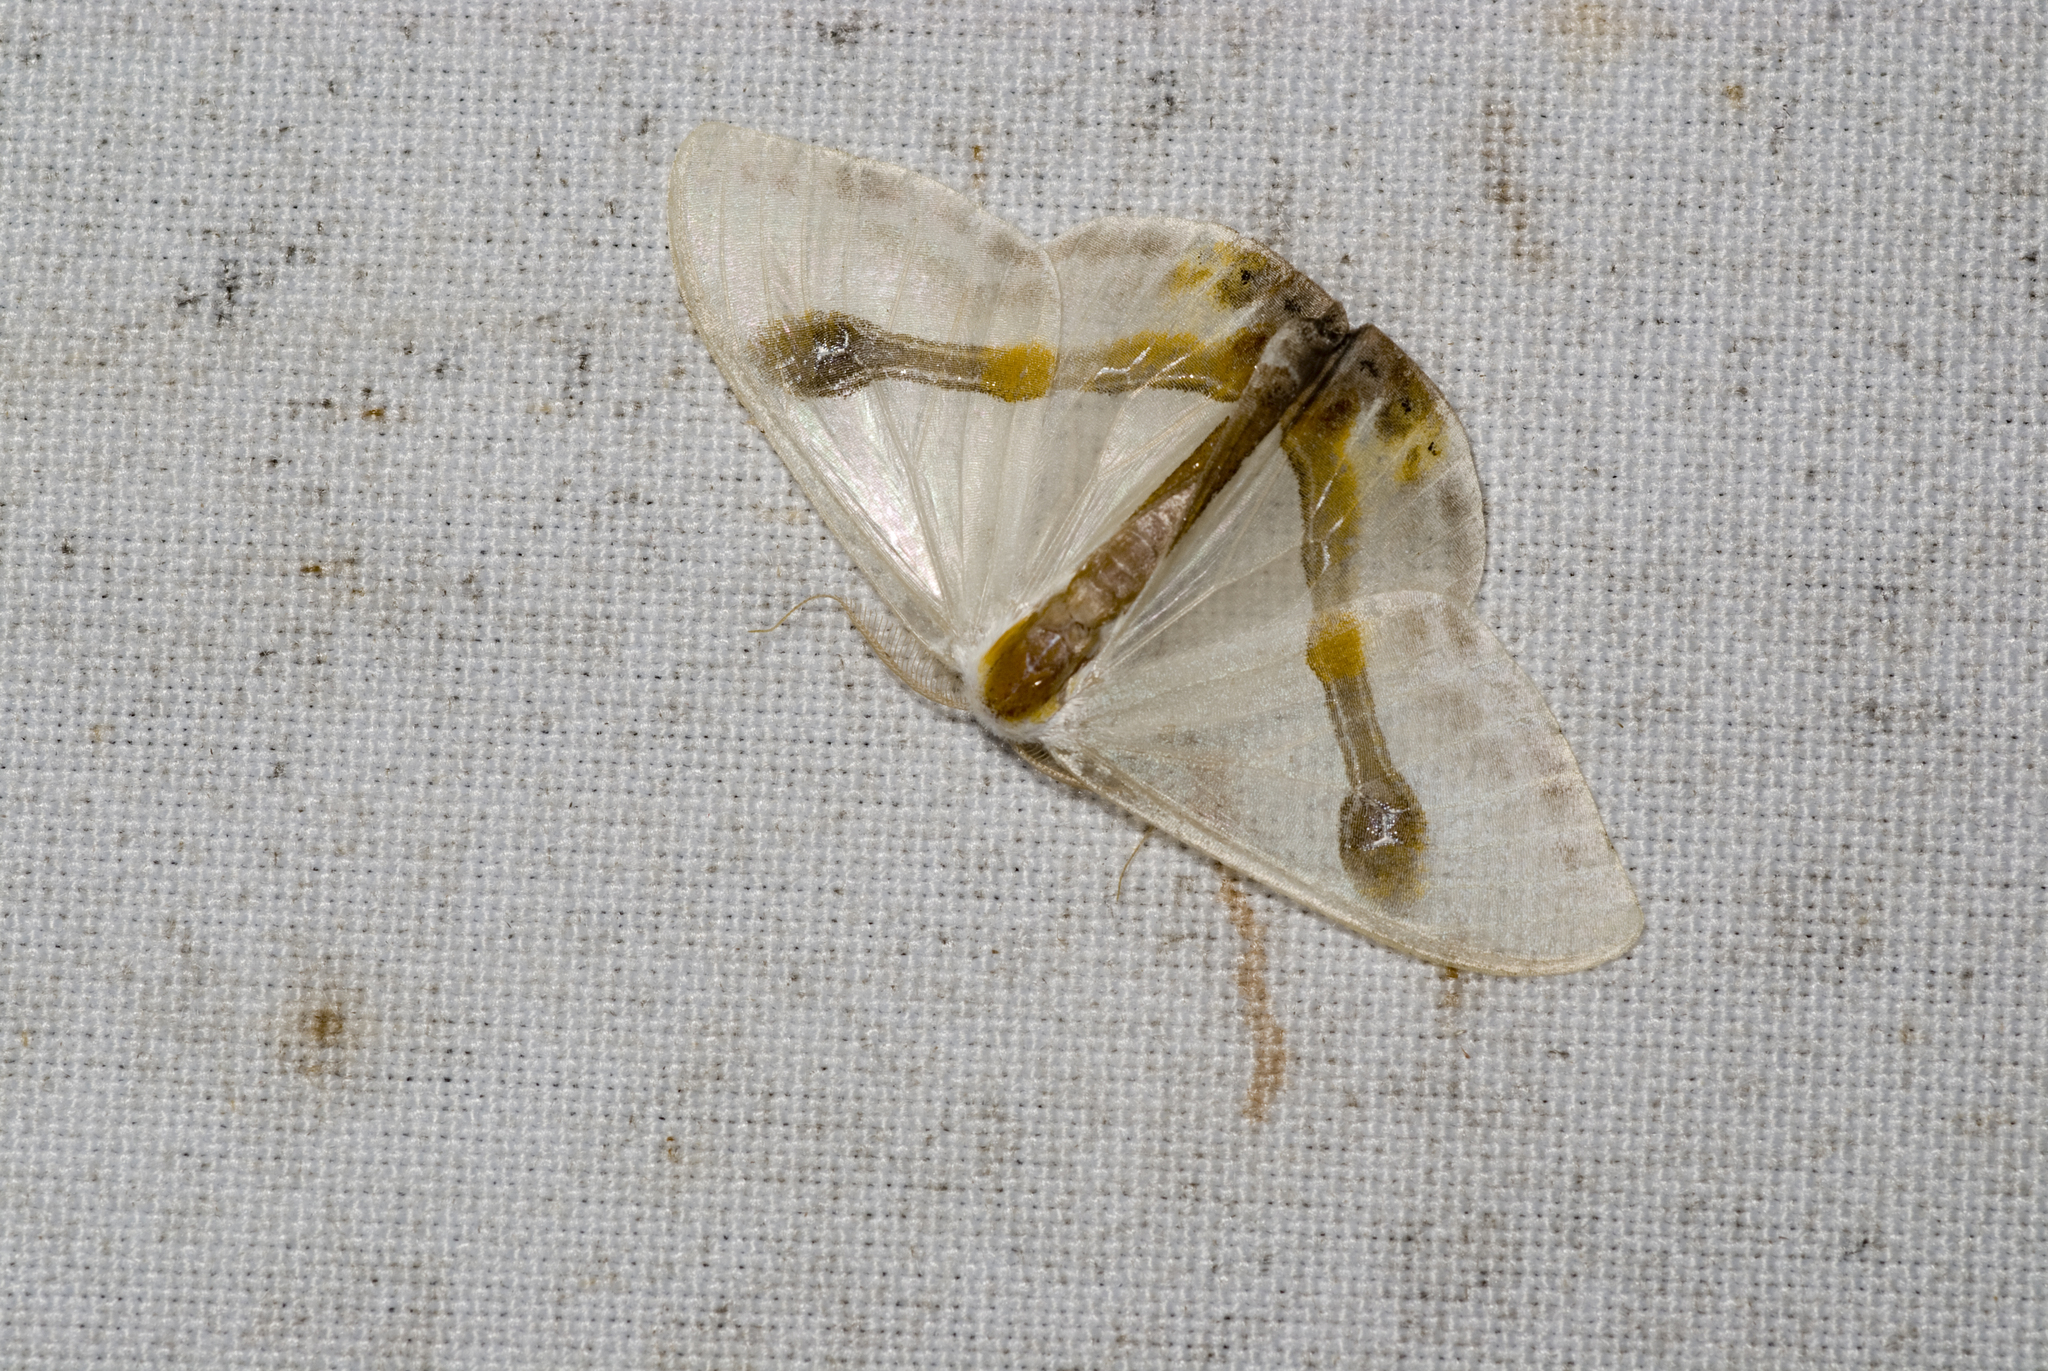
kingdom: Animalia
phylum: Arthropoda
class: Insecta
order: Lepidoptera
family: Drepanidae
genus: Macrocilix
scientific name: Macrocilix mysticata
